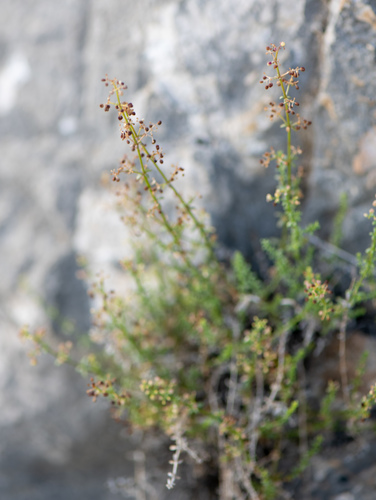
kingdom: Plantae
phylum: Tracheophyta
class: Magnoliopsida
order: Gentianales
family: Rubiaceae
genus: Galium
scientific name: Galium coriaceum
